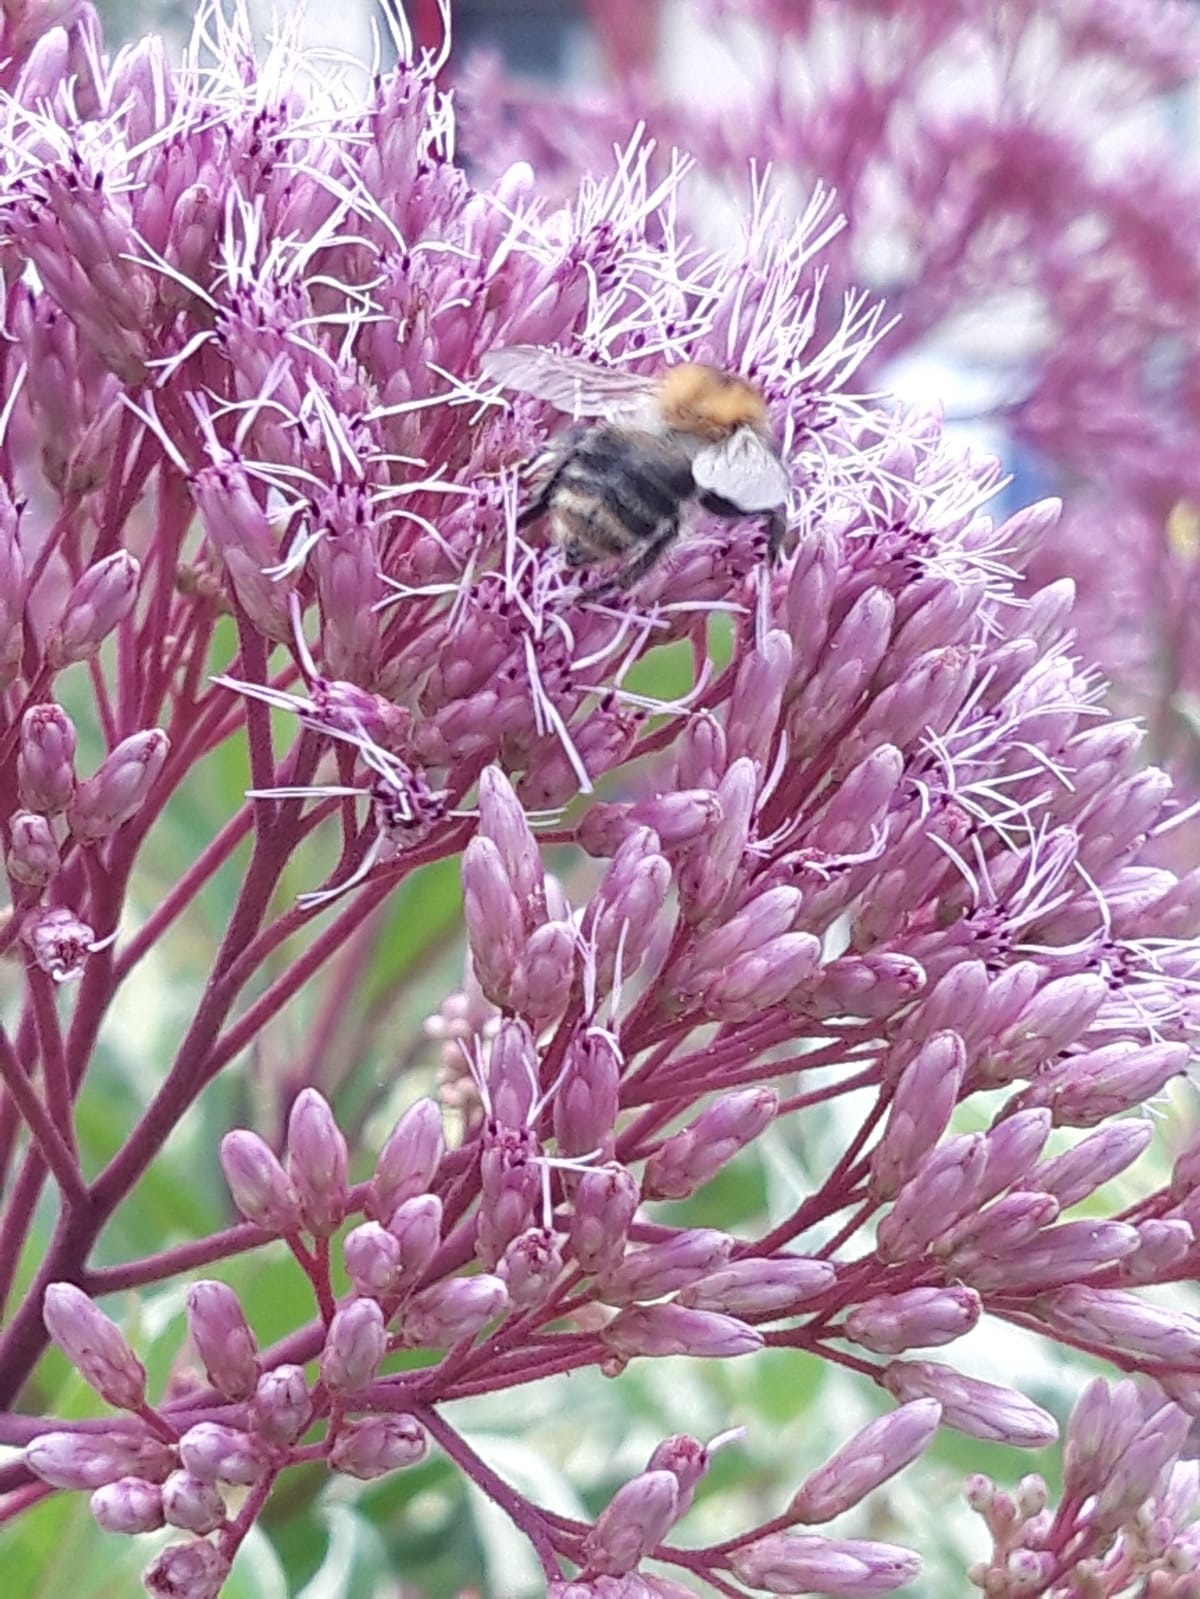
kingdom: Animalia
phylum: Arthropoda
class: Insecta
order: Hymenoptera
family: Apidae
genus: Bombus
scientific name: Bombus pascuorum
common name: Common carder bee
